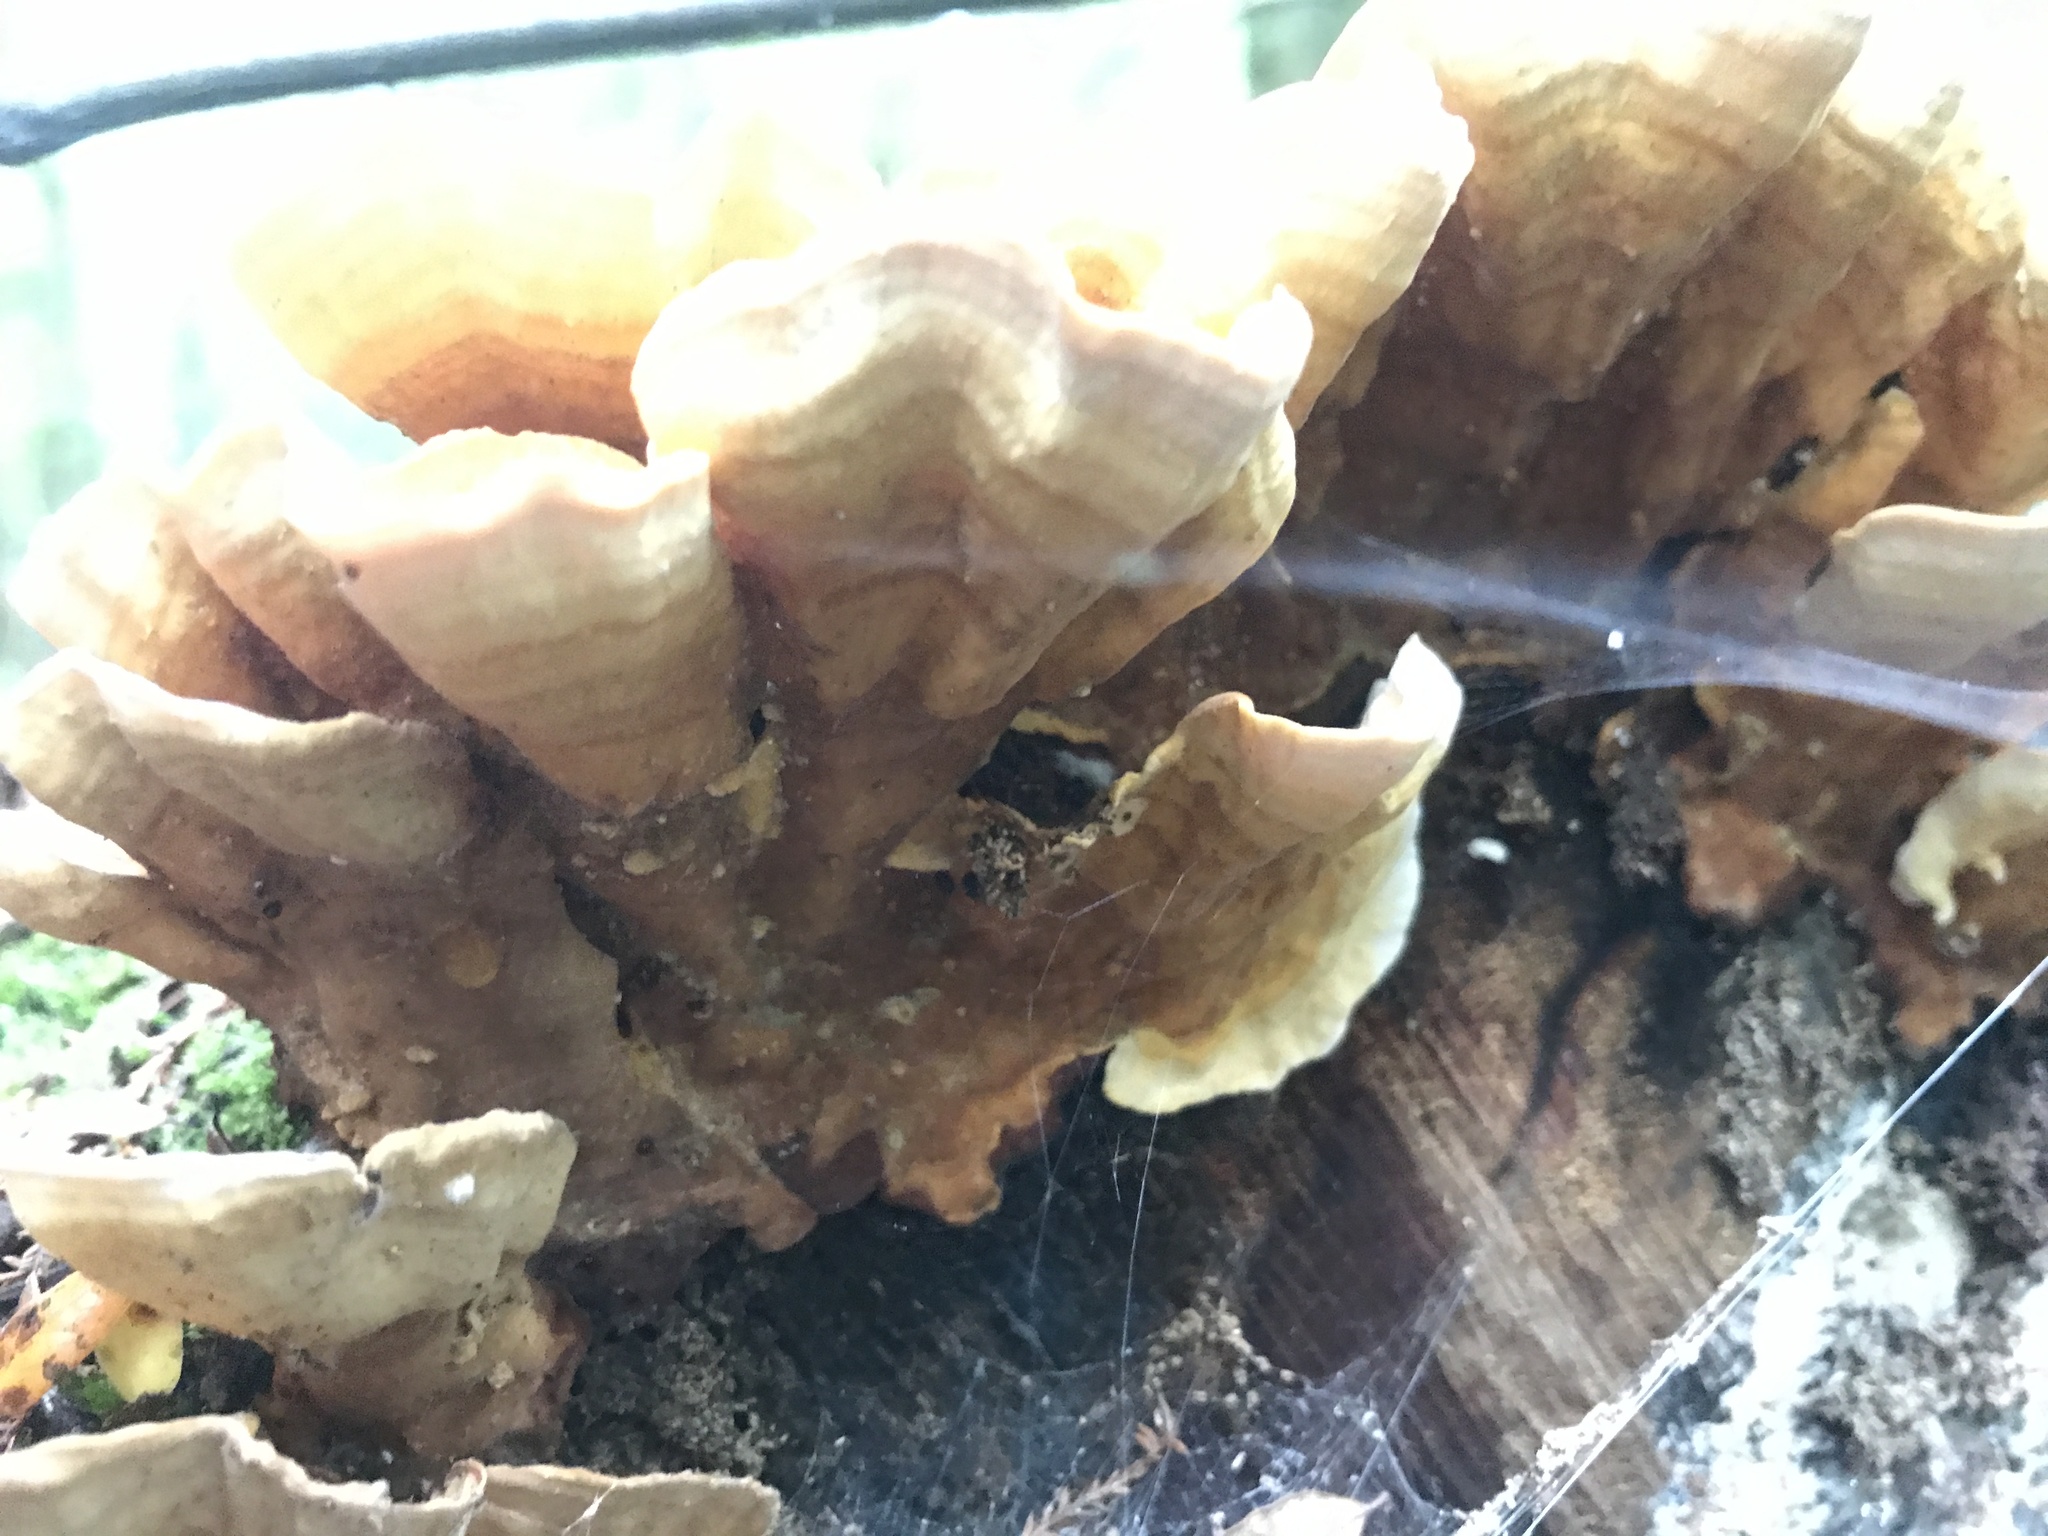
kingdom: Fungi
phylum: Basidiomycota
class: Agaricomycetes
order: Polyporales
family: Polyporaceae
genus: Trametes
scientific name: Trametes versicolor
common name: Turkeytail
